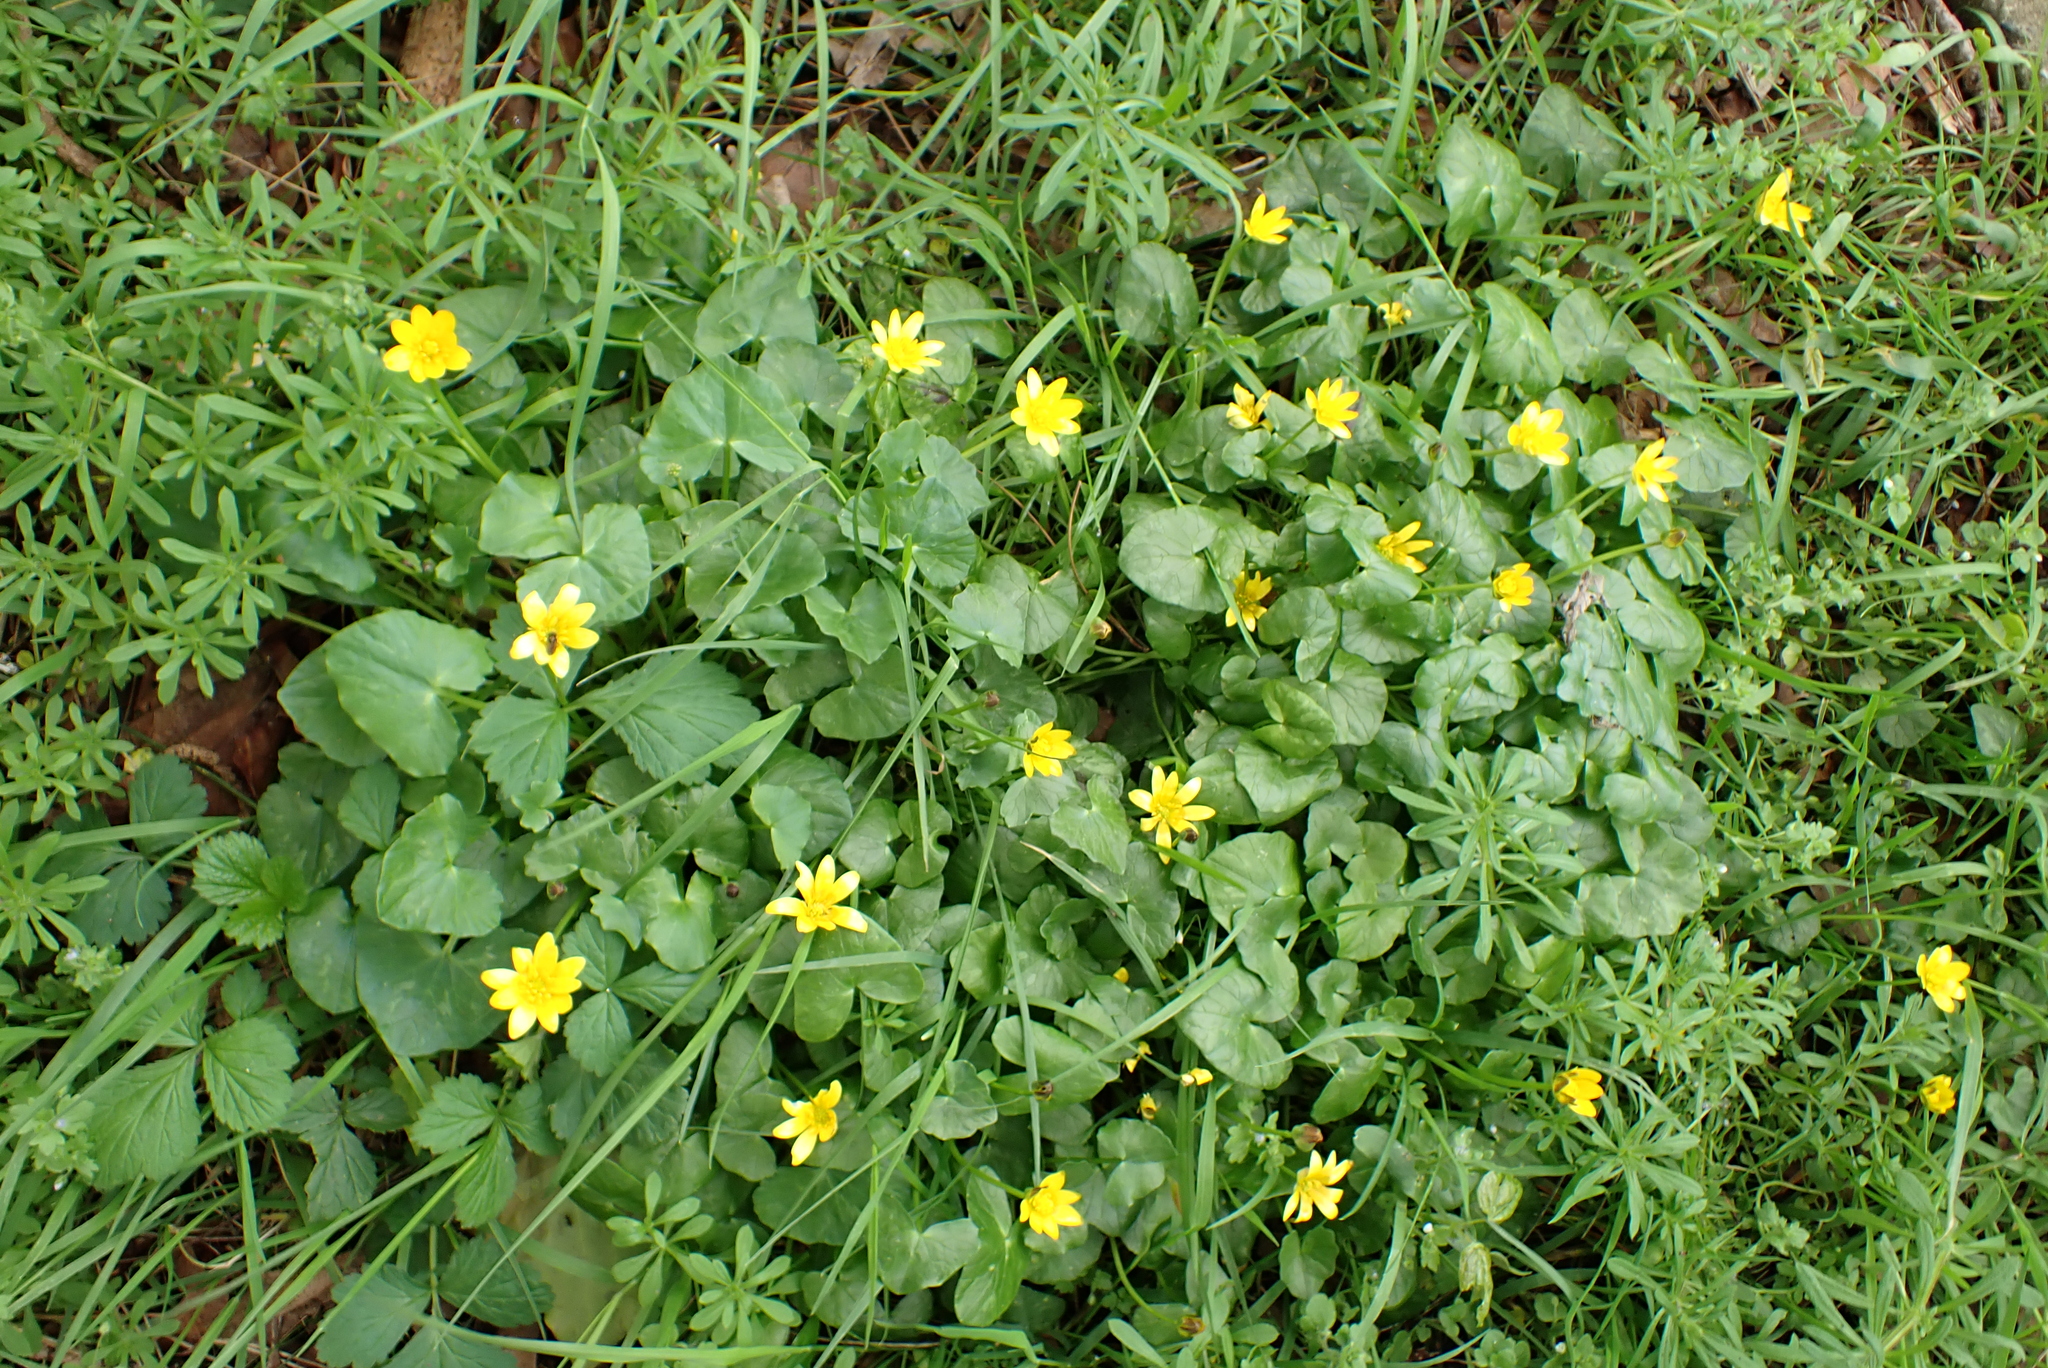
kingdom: Plantae
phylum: Tracheophyta
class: Magnoliopsida
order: Ranunculales
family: Ranunculaceae
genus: Ficaria
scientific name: Ficaria verna
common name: Lesser celandine
